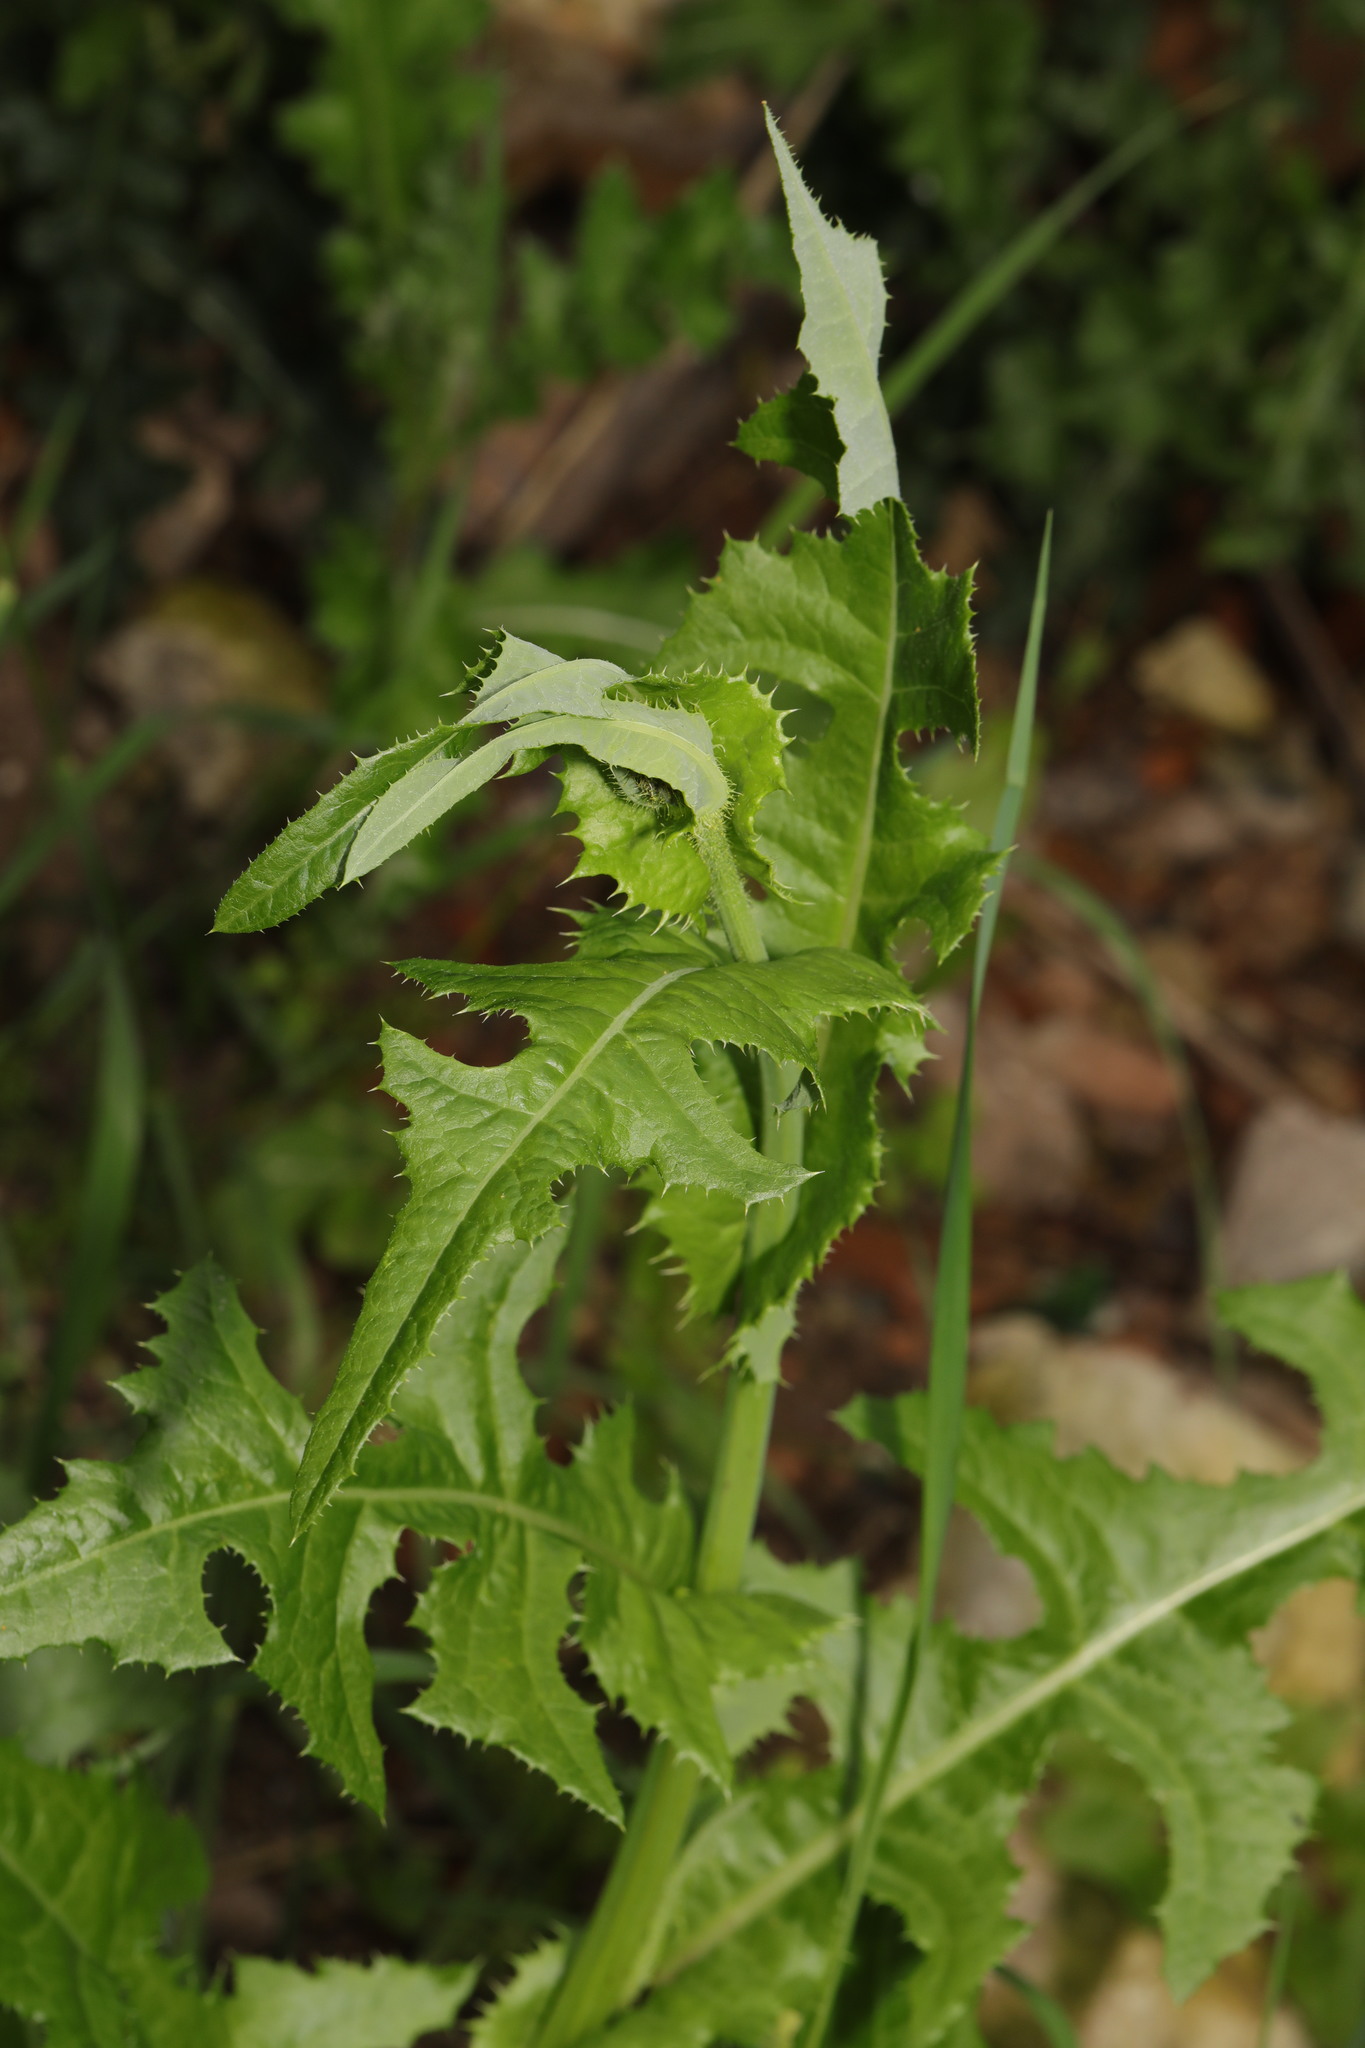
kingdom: Plantae
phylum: Tracheophyta
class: Magnoliopsida
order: Asterales
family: Asteraceae
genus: Sonchus
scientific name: Sonchus arvensis
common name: Perennial sow-thistle
